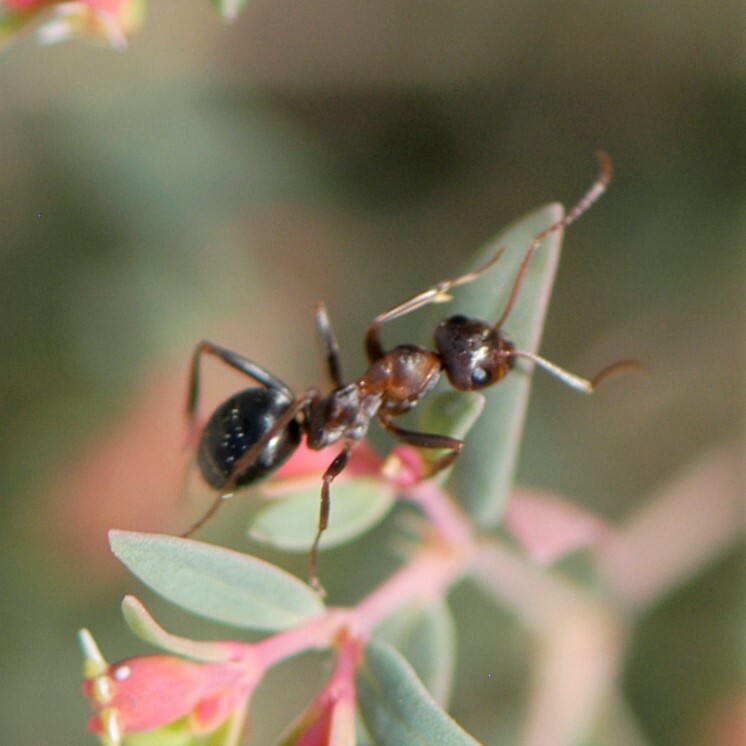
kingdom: Animalia
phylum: Arthropoda
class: Insecta
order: Hymenoptera
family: Formicidae
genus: Formica
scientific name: Formica
